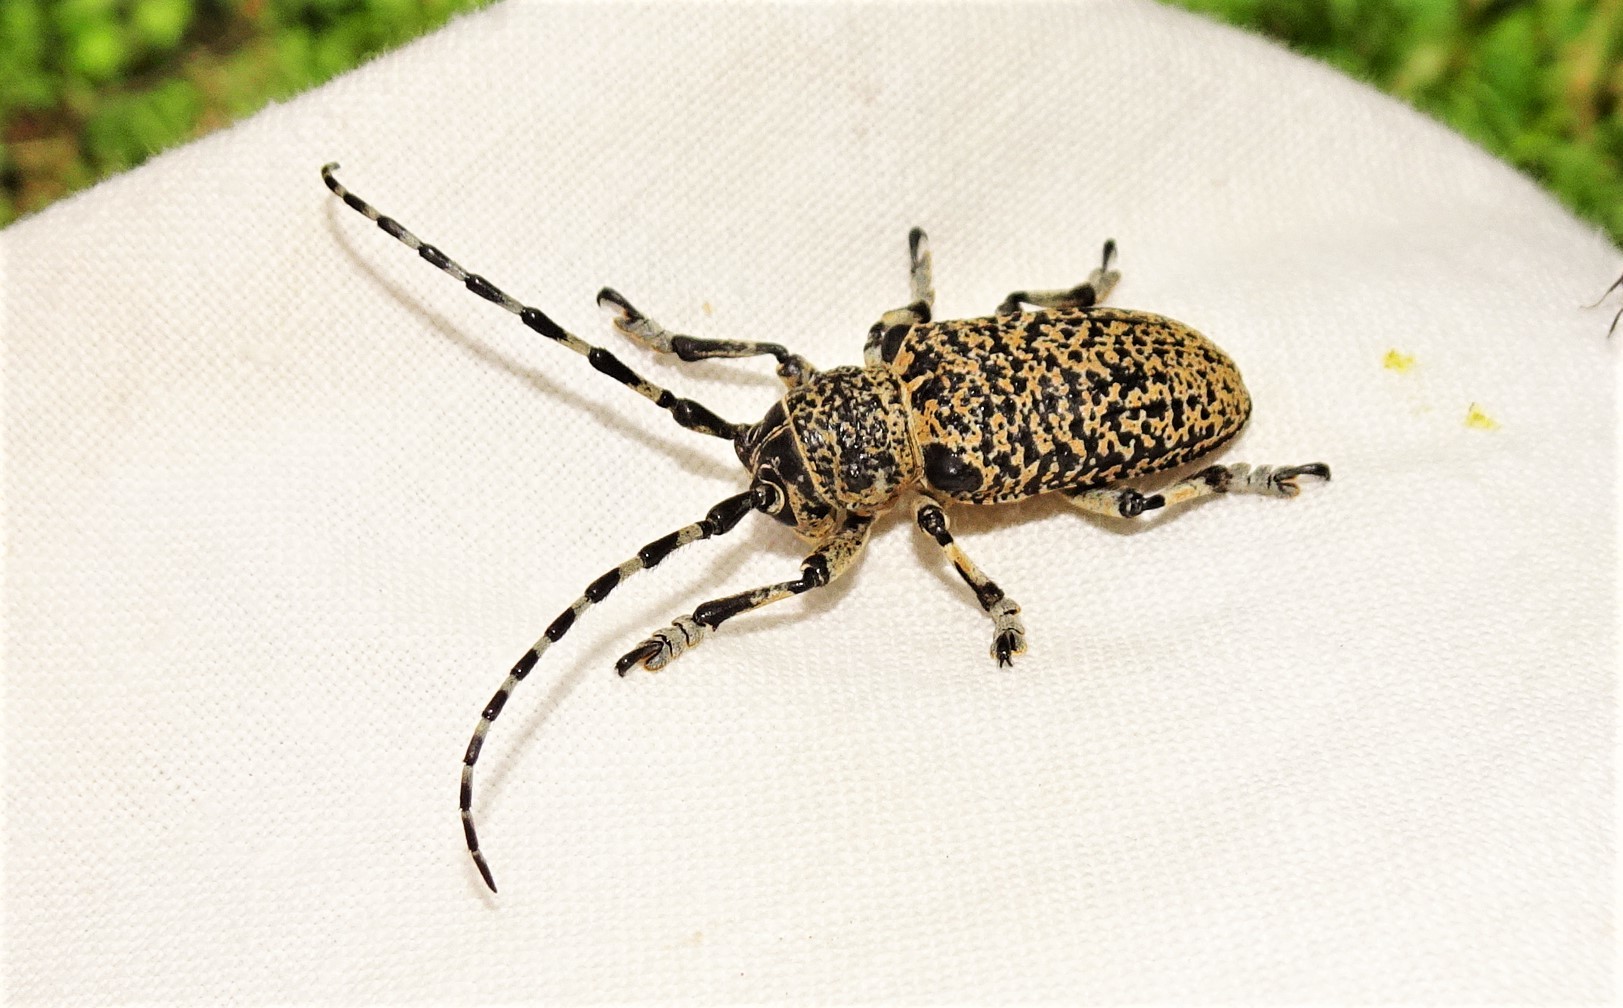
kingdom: Animalia
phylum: Arthropoda
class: Insecta
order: Coleoptera
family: Cerambycidae
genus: Rhytiphora
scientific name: Rhytiphora vermicularia
